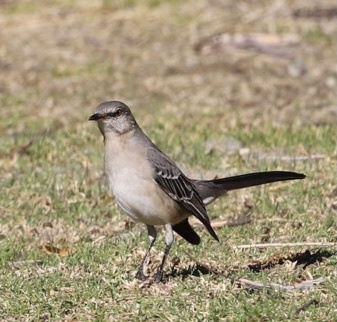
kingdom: Animalia
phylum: Chordata
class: Aves
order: Passeriformes
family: Mimidae
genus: Mimus
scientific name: Mimus polyglottos
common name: Northern mockingbird
